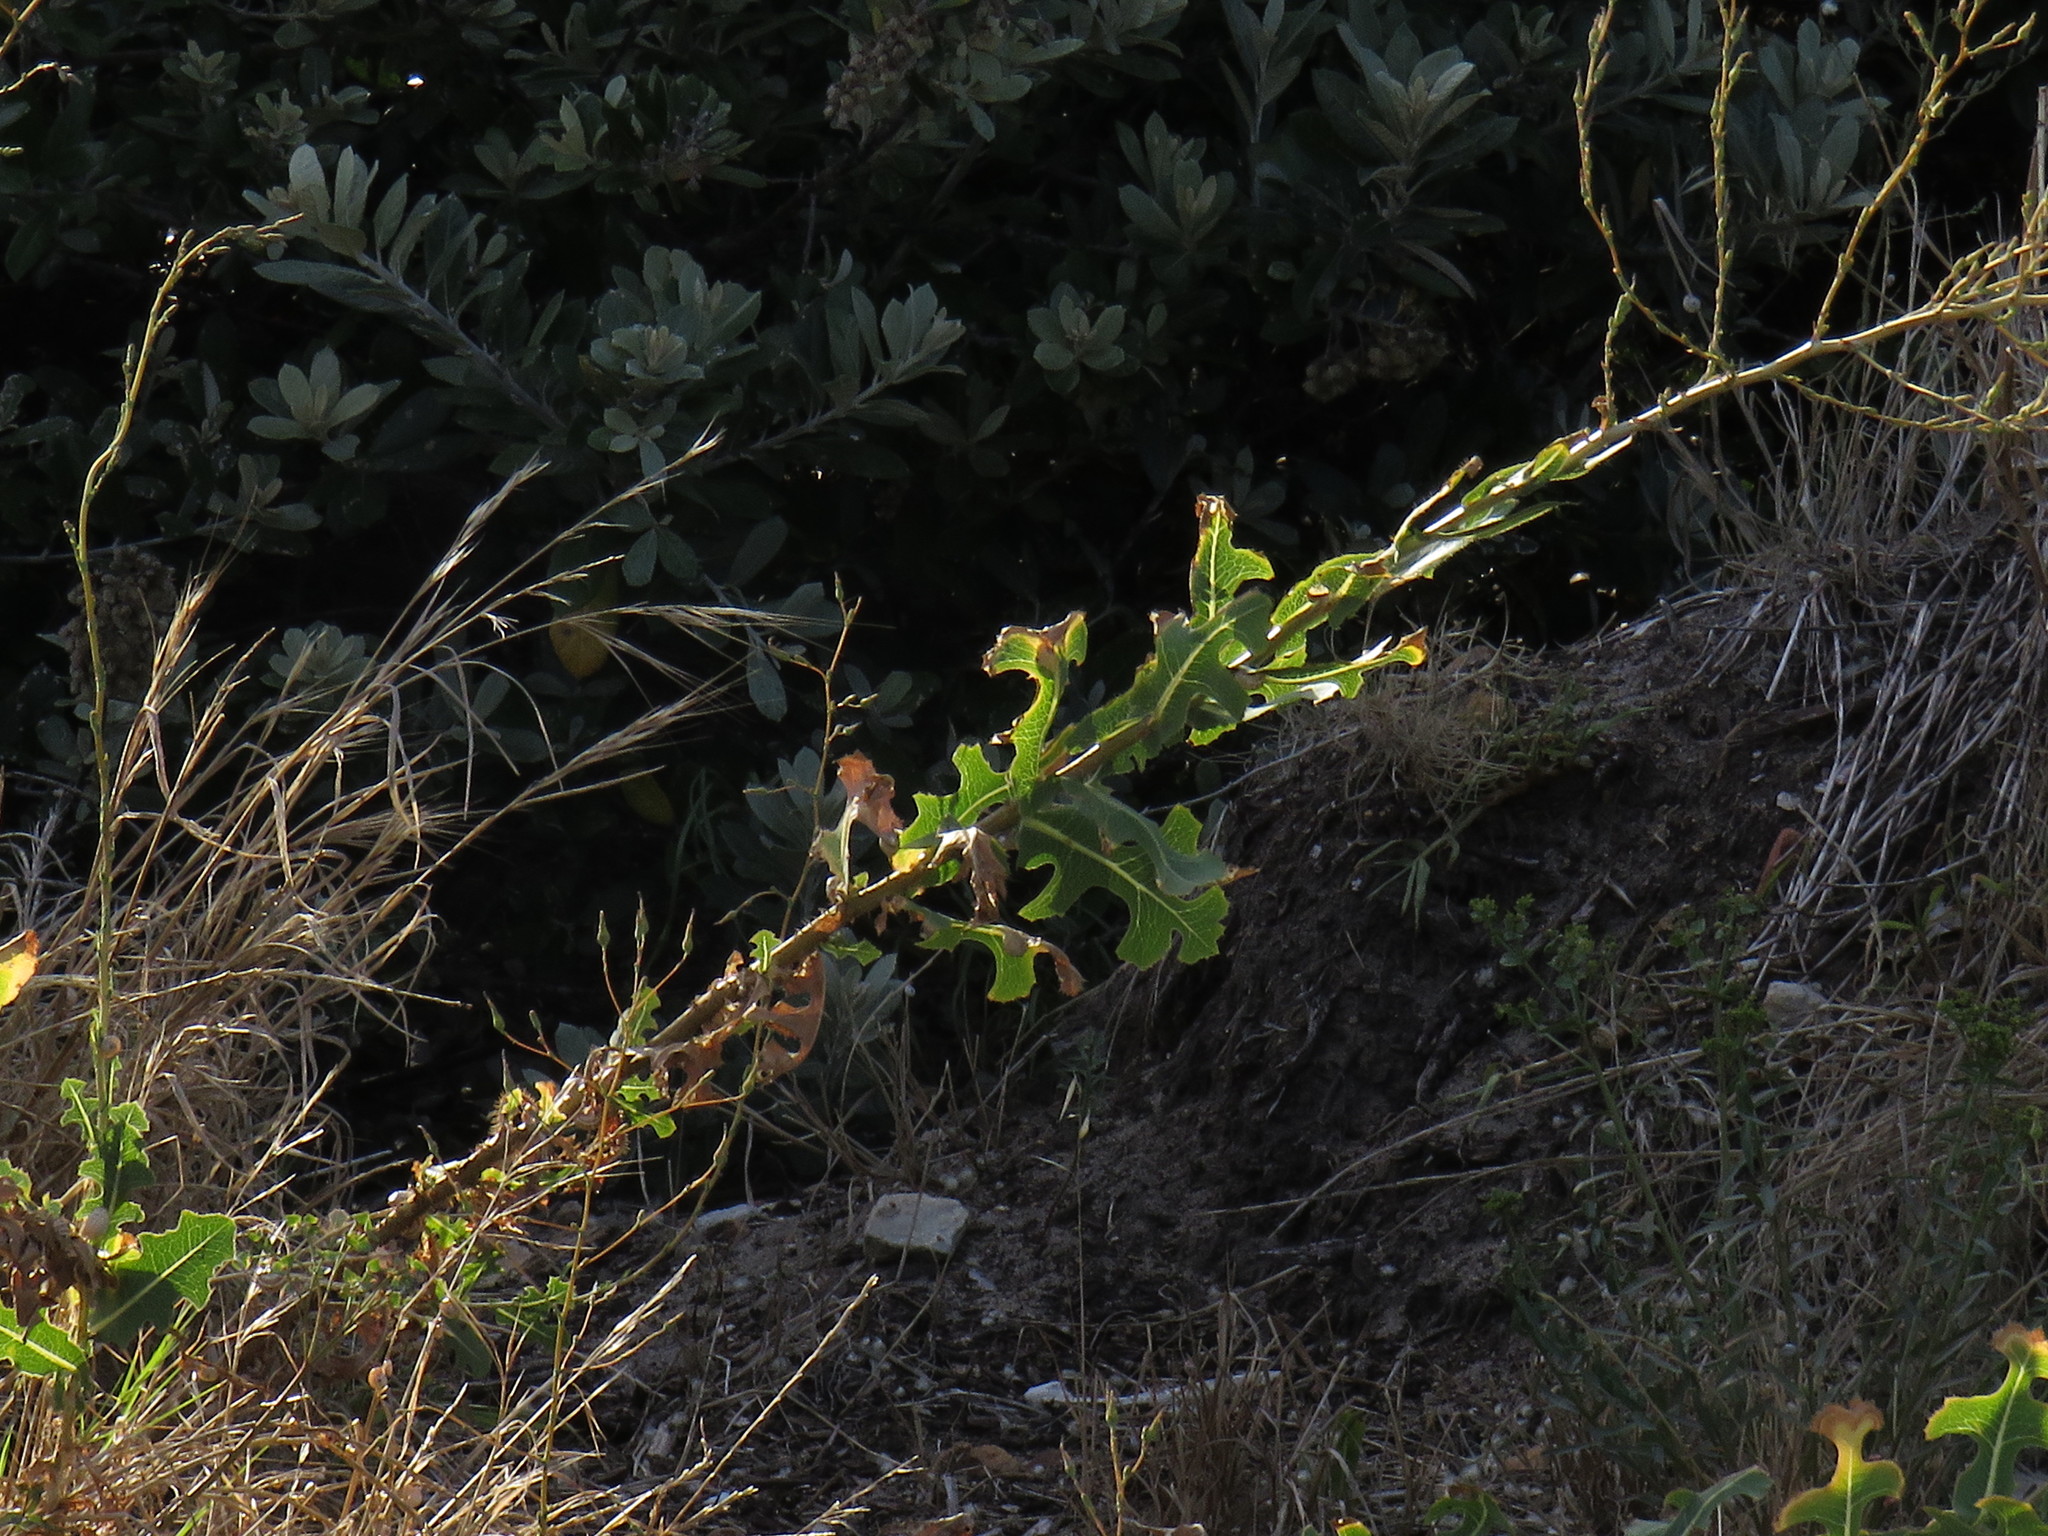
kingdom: Plantae
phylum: Tracheophyta
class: Magnoliopsida
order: Asterales
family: Asteraceae
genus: Lactuca
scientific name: Lactuca serriola
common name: Prickly lettuce
